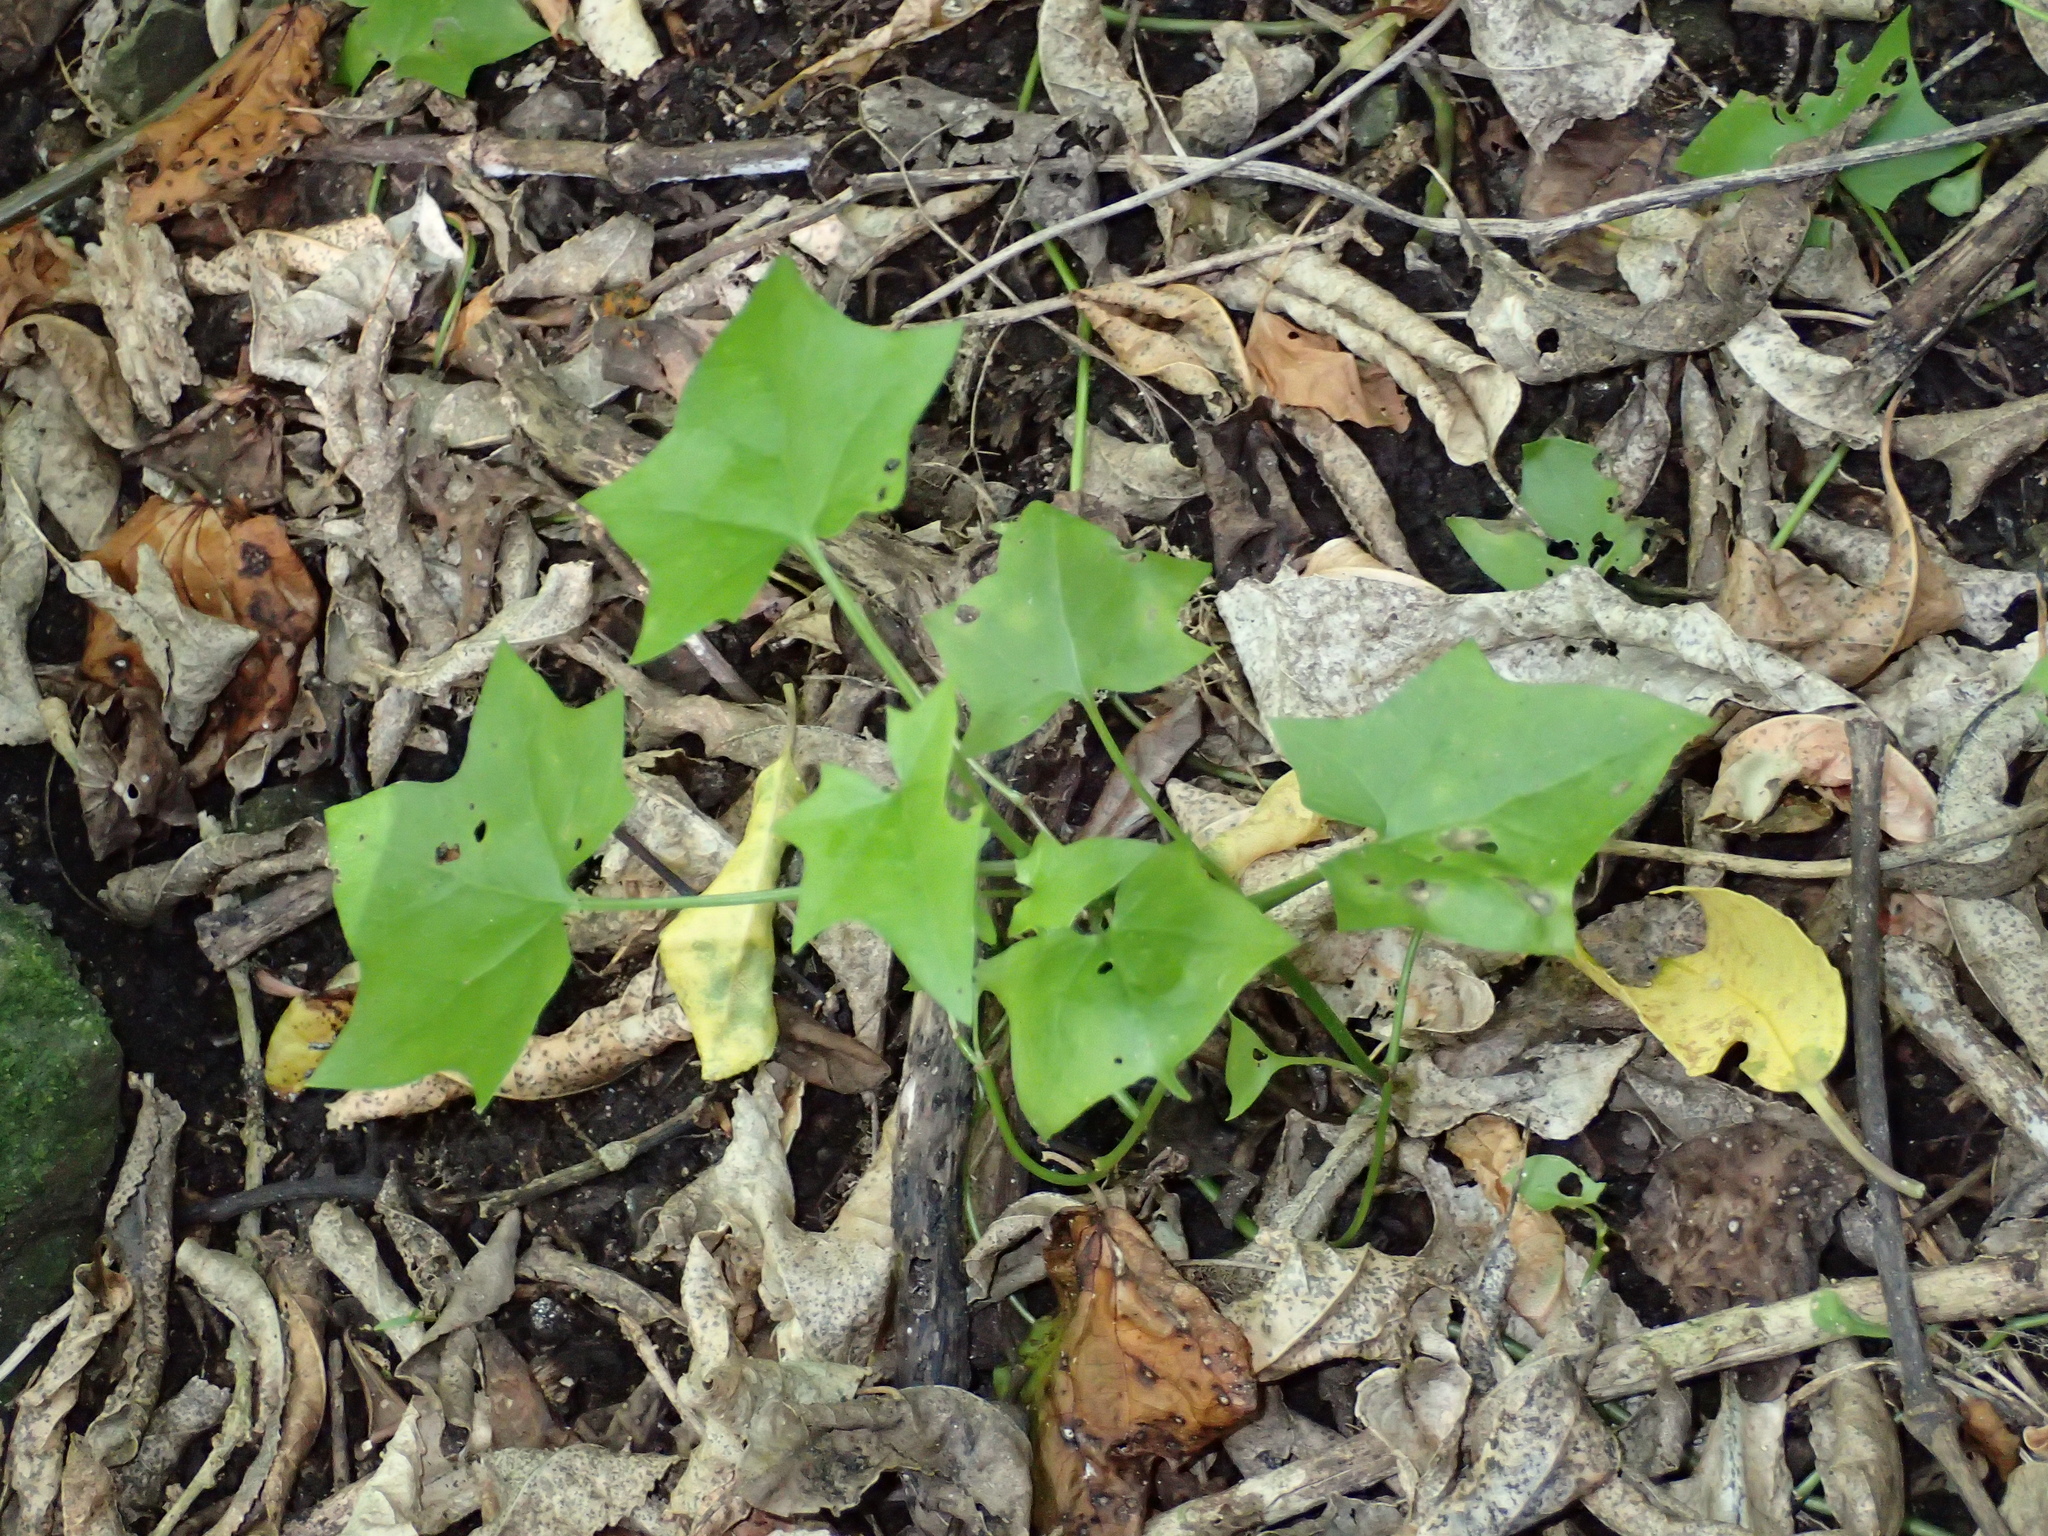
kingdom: Plantae
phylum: Tracheophyta
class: Magnoliopsida
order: Asterales
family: Asteraceae
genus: Delairea
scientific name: Delairea odorata
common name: Cape-ivy
